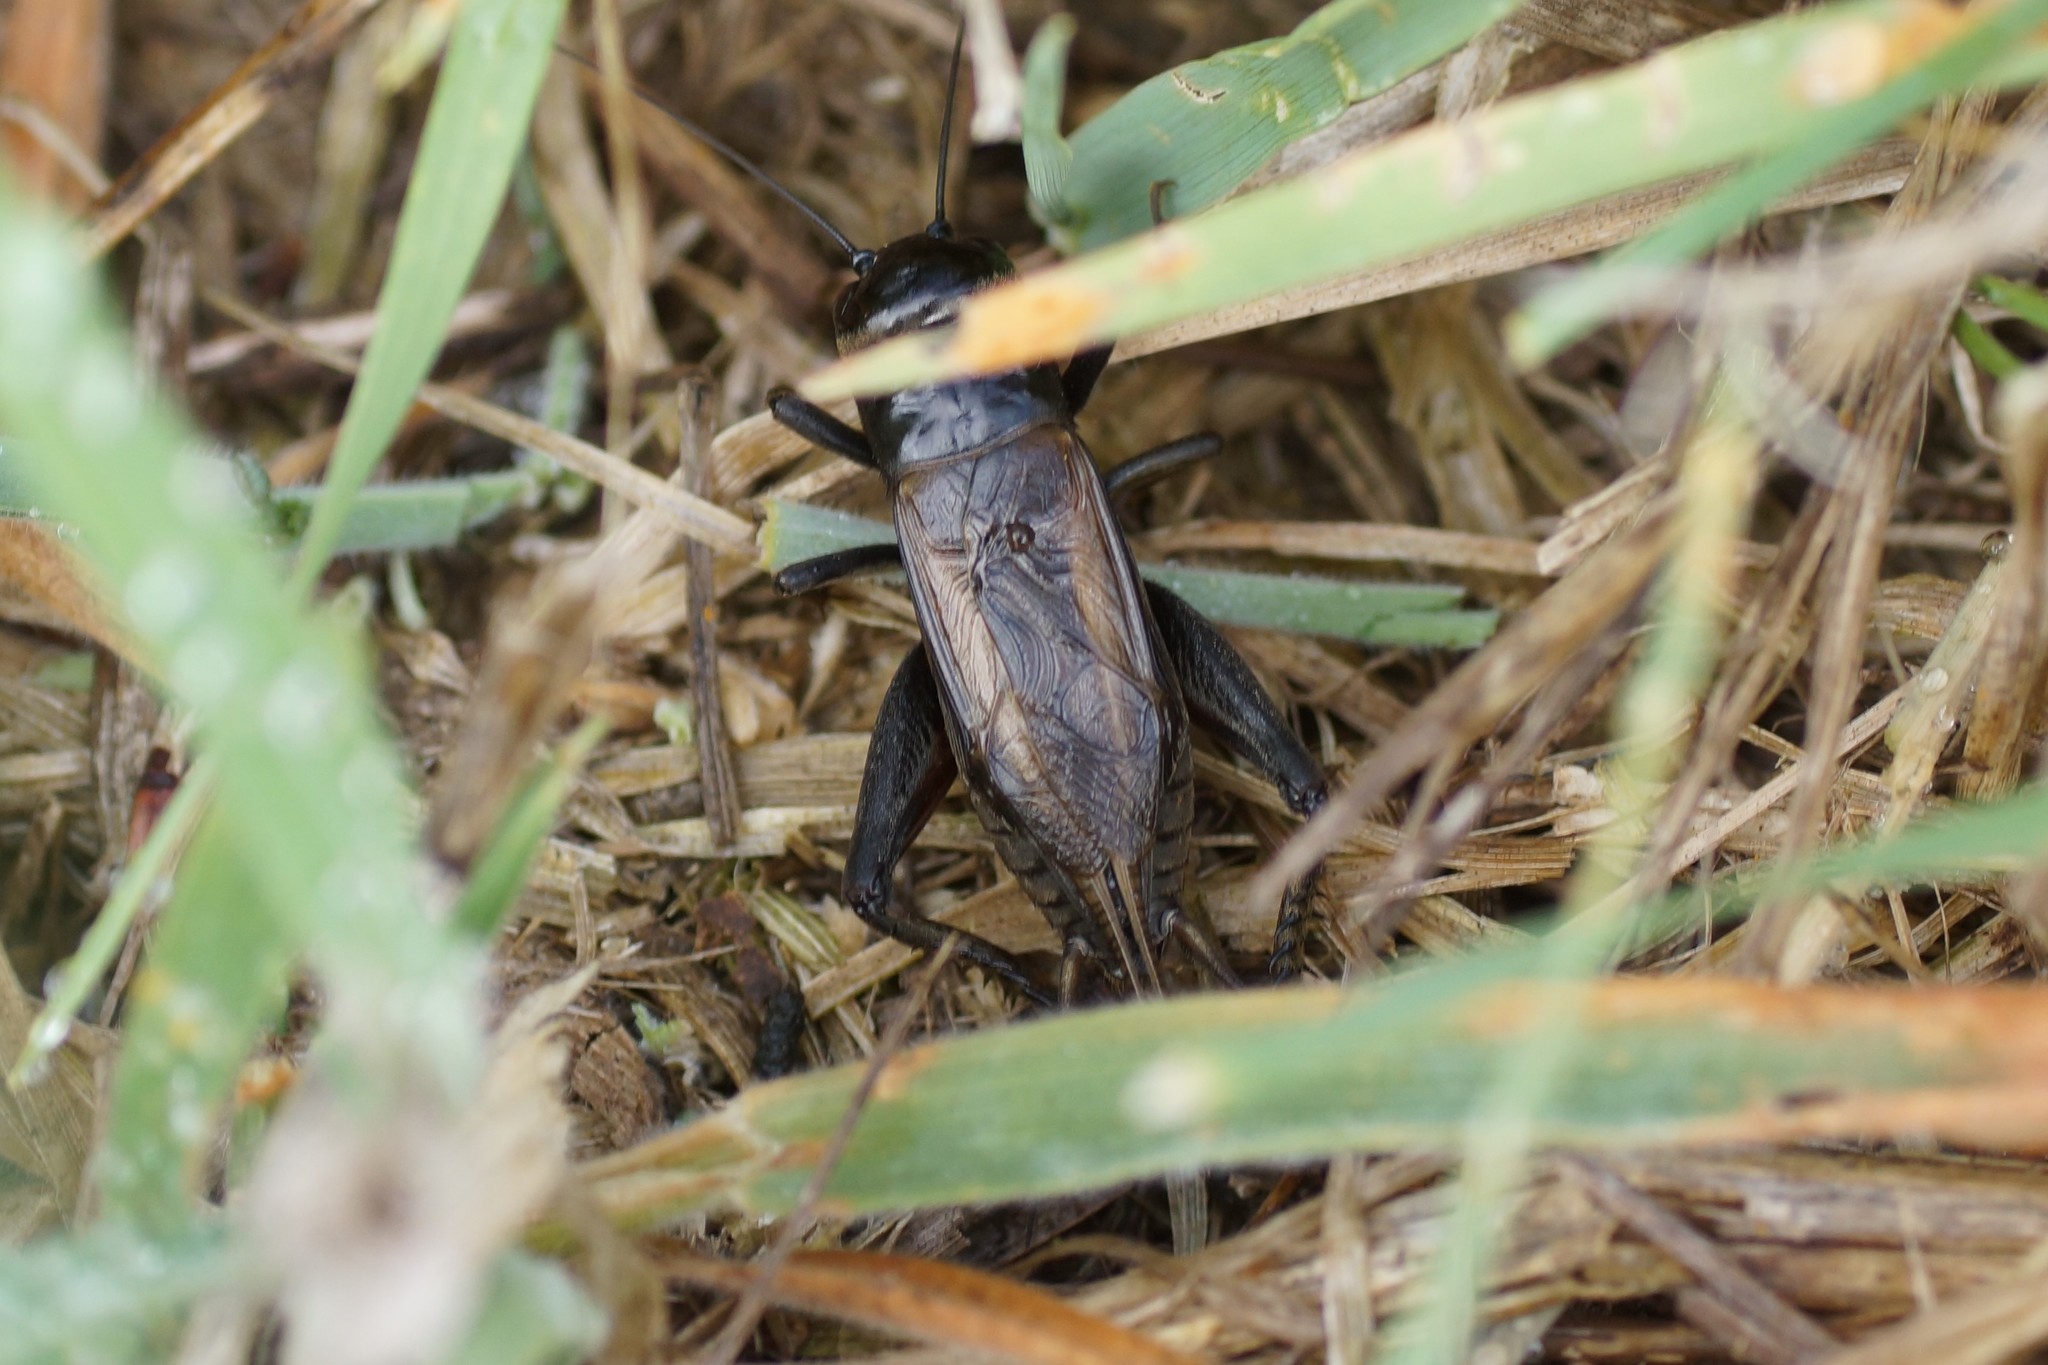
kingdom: Animalia
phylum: Arthropoda
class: Insecta
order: Orthoptera
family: Gryllidae
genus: Teleogryllus
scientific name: Teleogryllus commodus
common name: Black field cricket
